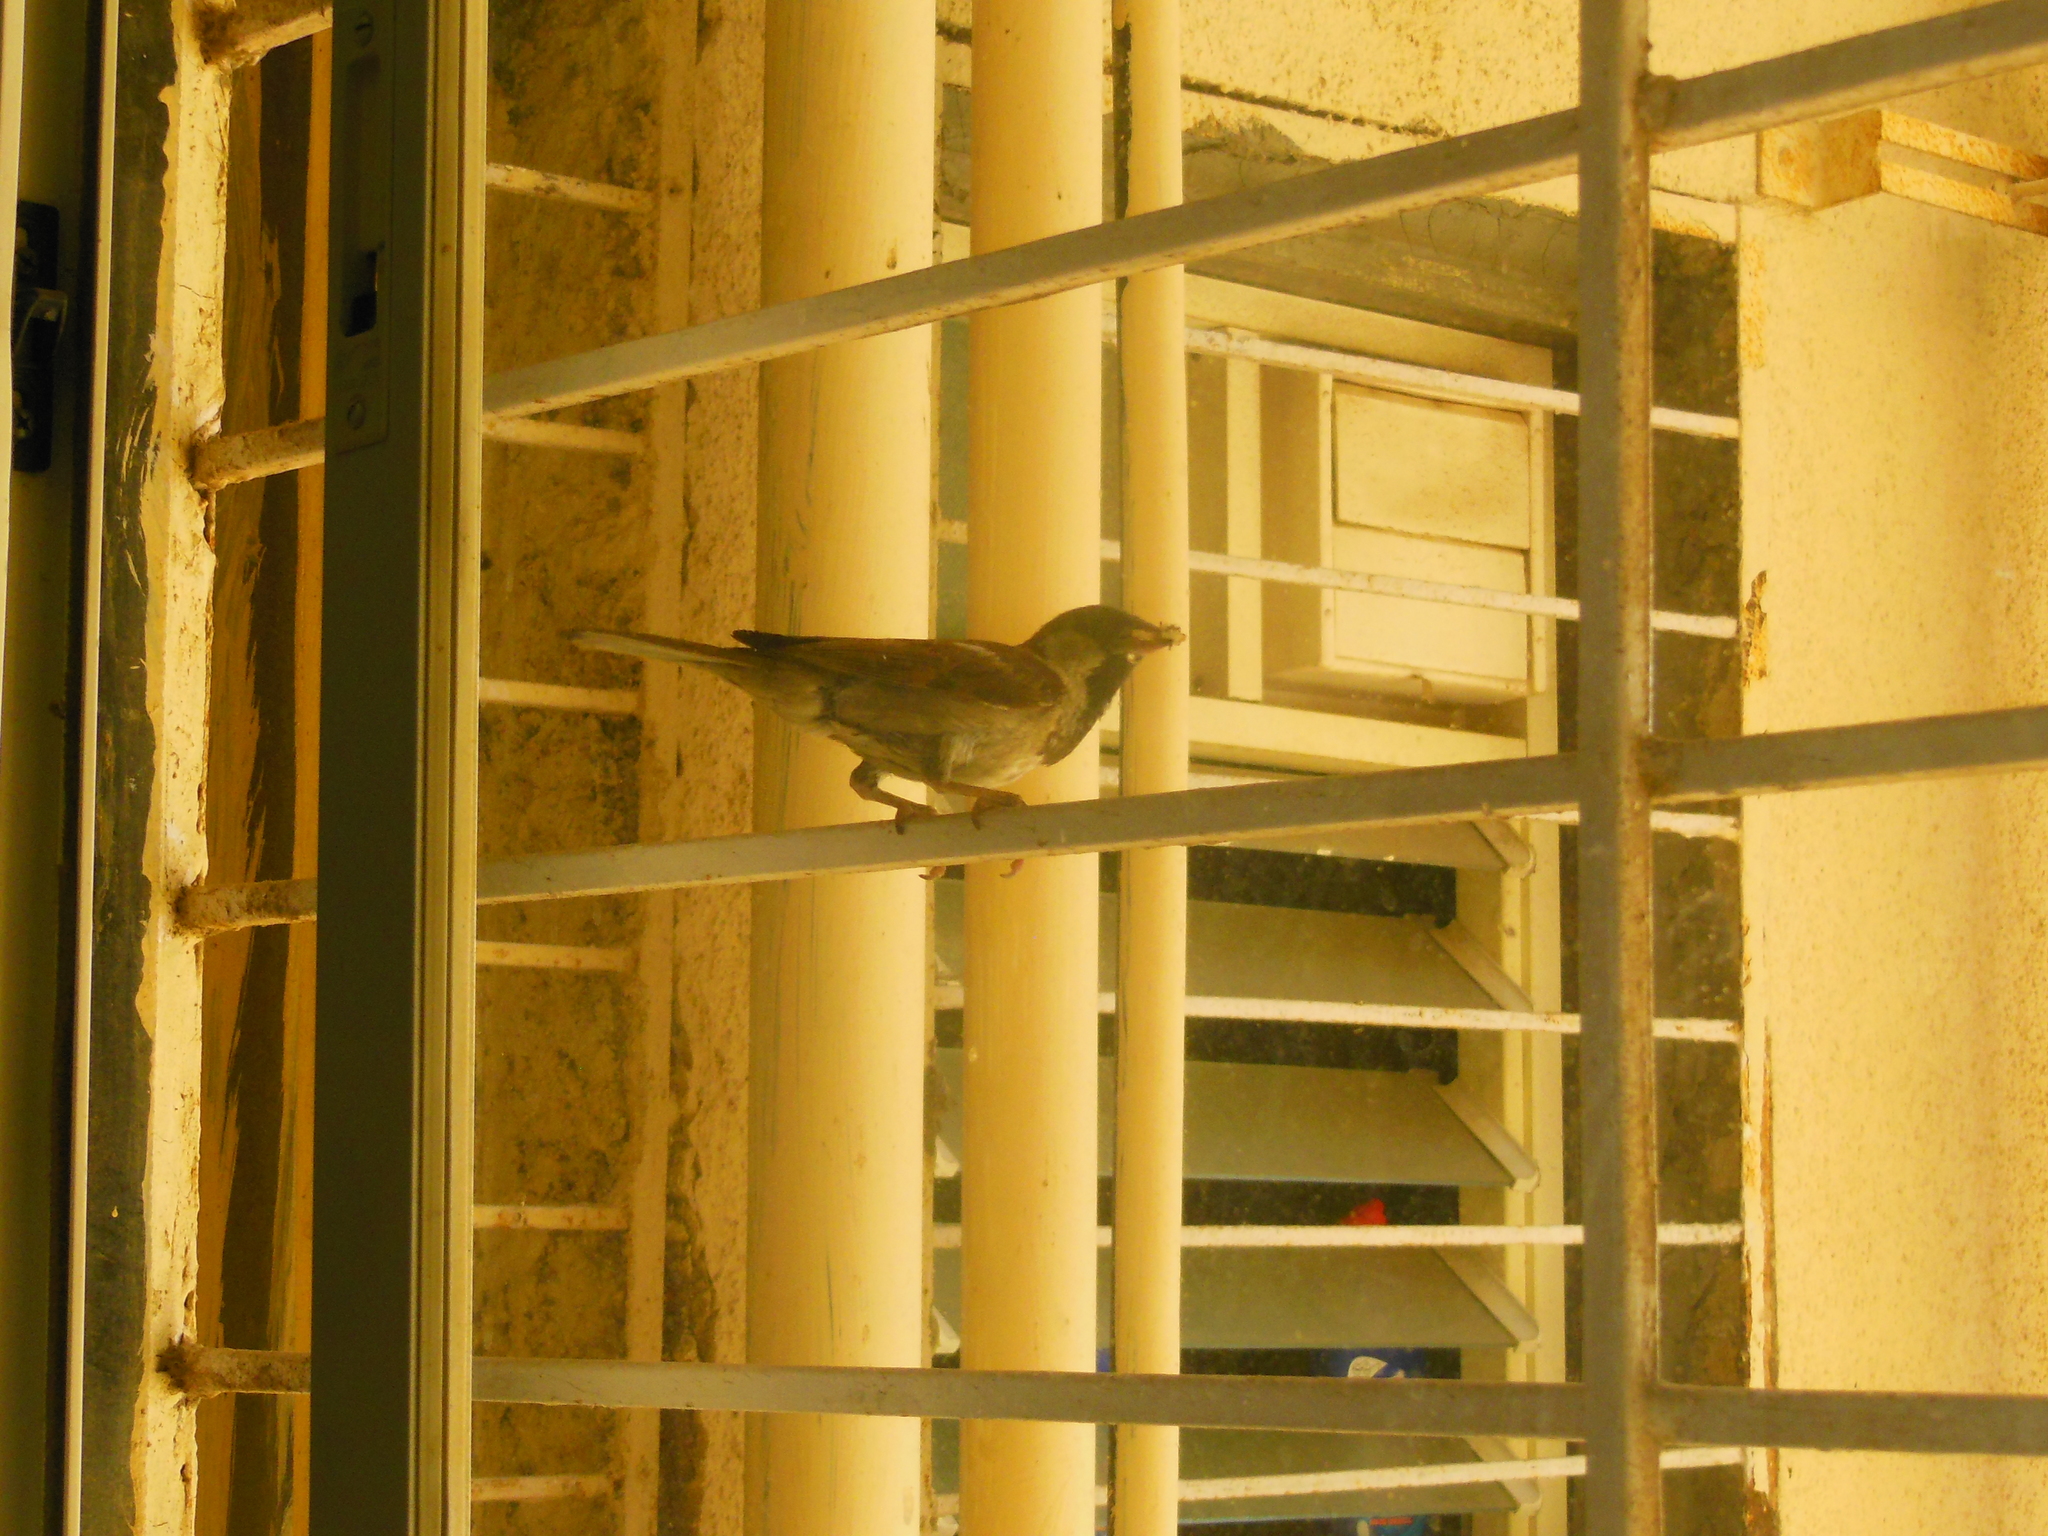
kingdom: Animalia
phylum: Chordata
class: Aves
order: Passeriformes
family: Passeridae
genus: Passer
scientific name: Passer domesticus
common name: House sparrow
